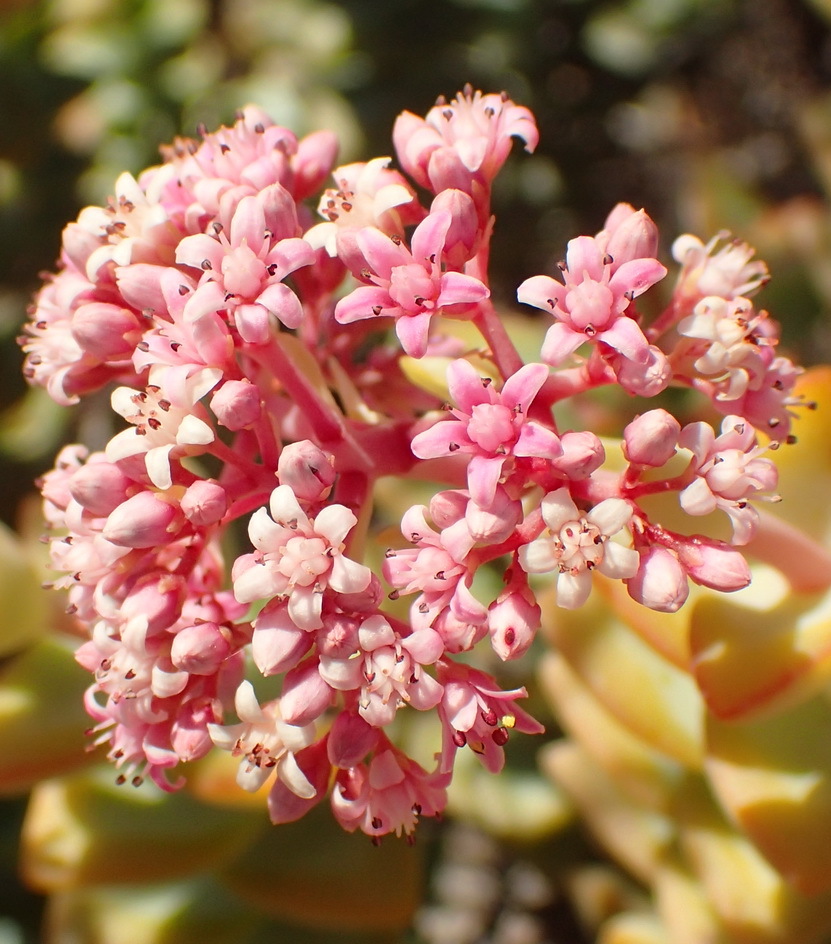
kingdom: Plantae
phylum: Tracheophyta
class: Magnoliopsida
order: Saxifragales
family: Crassulaceae
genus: Crassula
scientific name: Crassula rupestris
